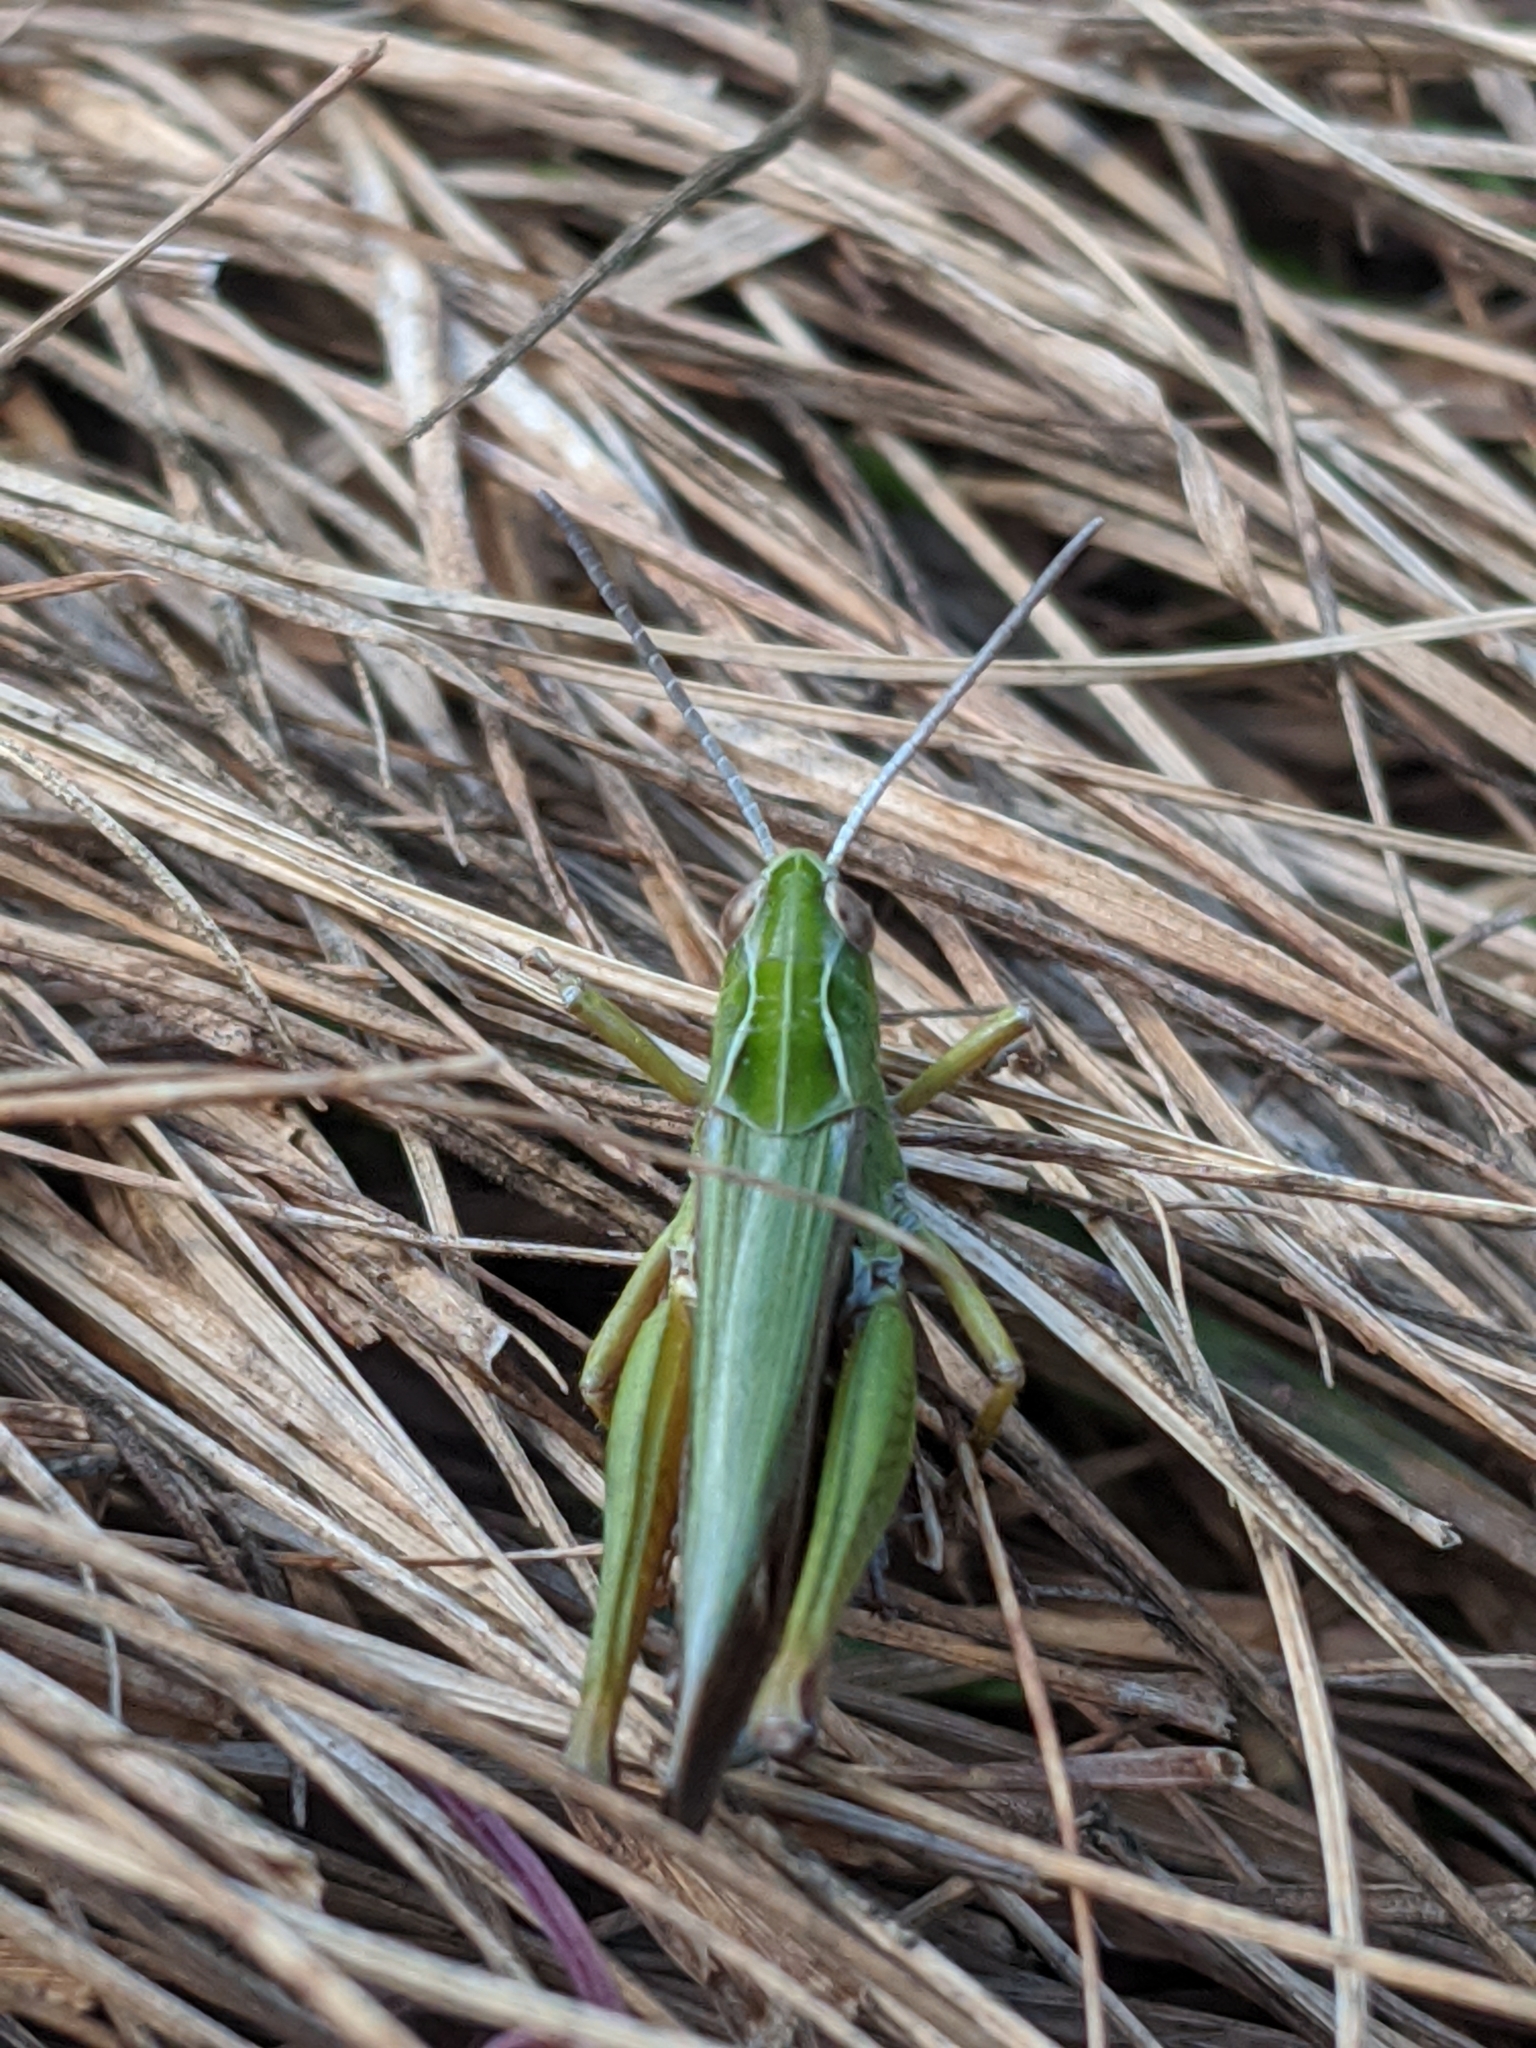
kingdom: Animalia
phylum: Arthropoda
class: Insecta
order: Orthoptera
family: Acrididae
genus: Omocestus
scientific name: Omocestus viridulus
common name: Common green grasshopper
